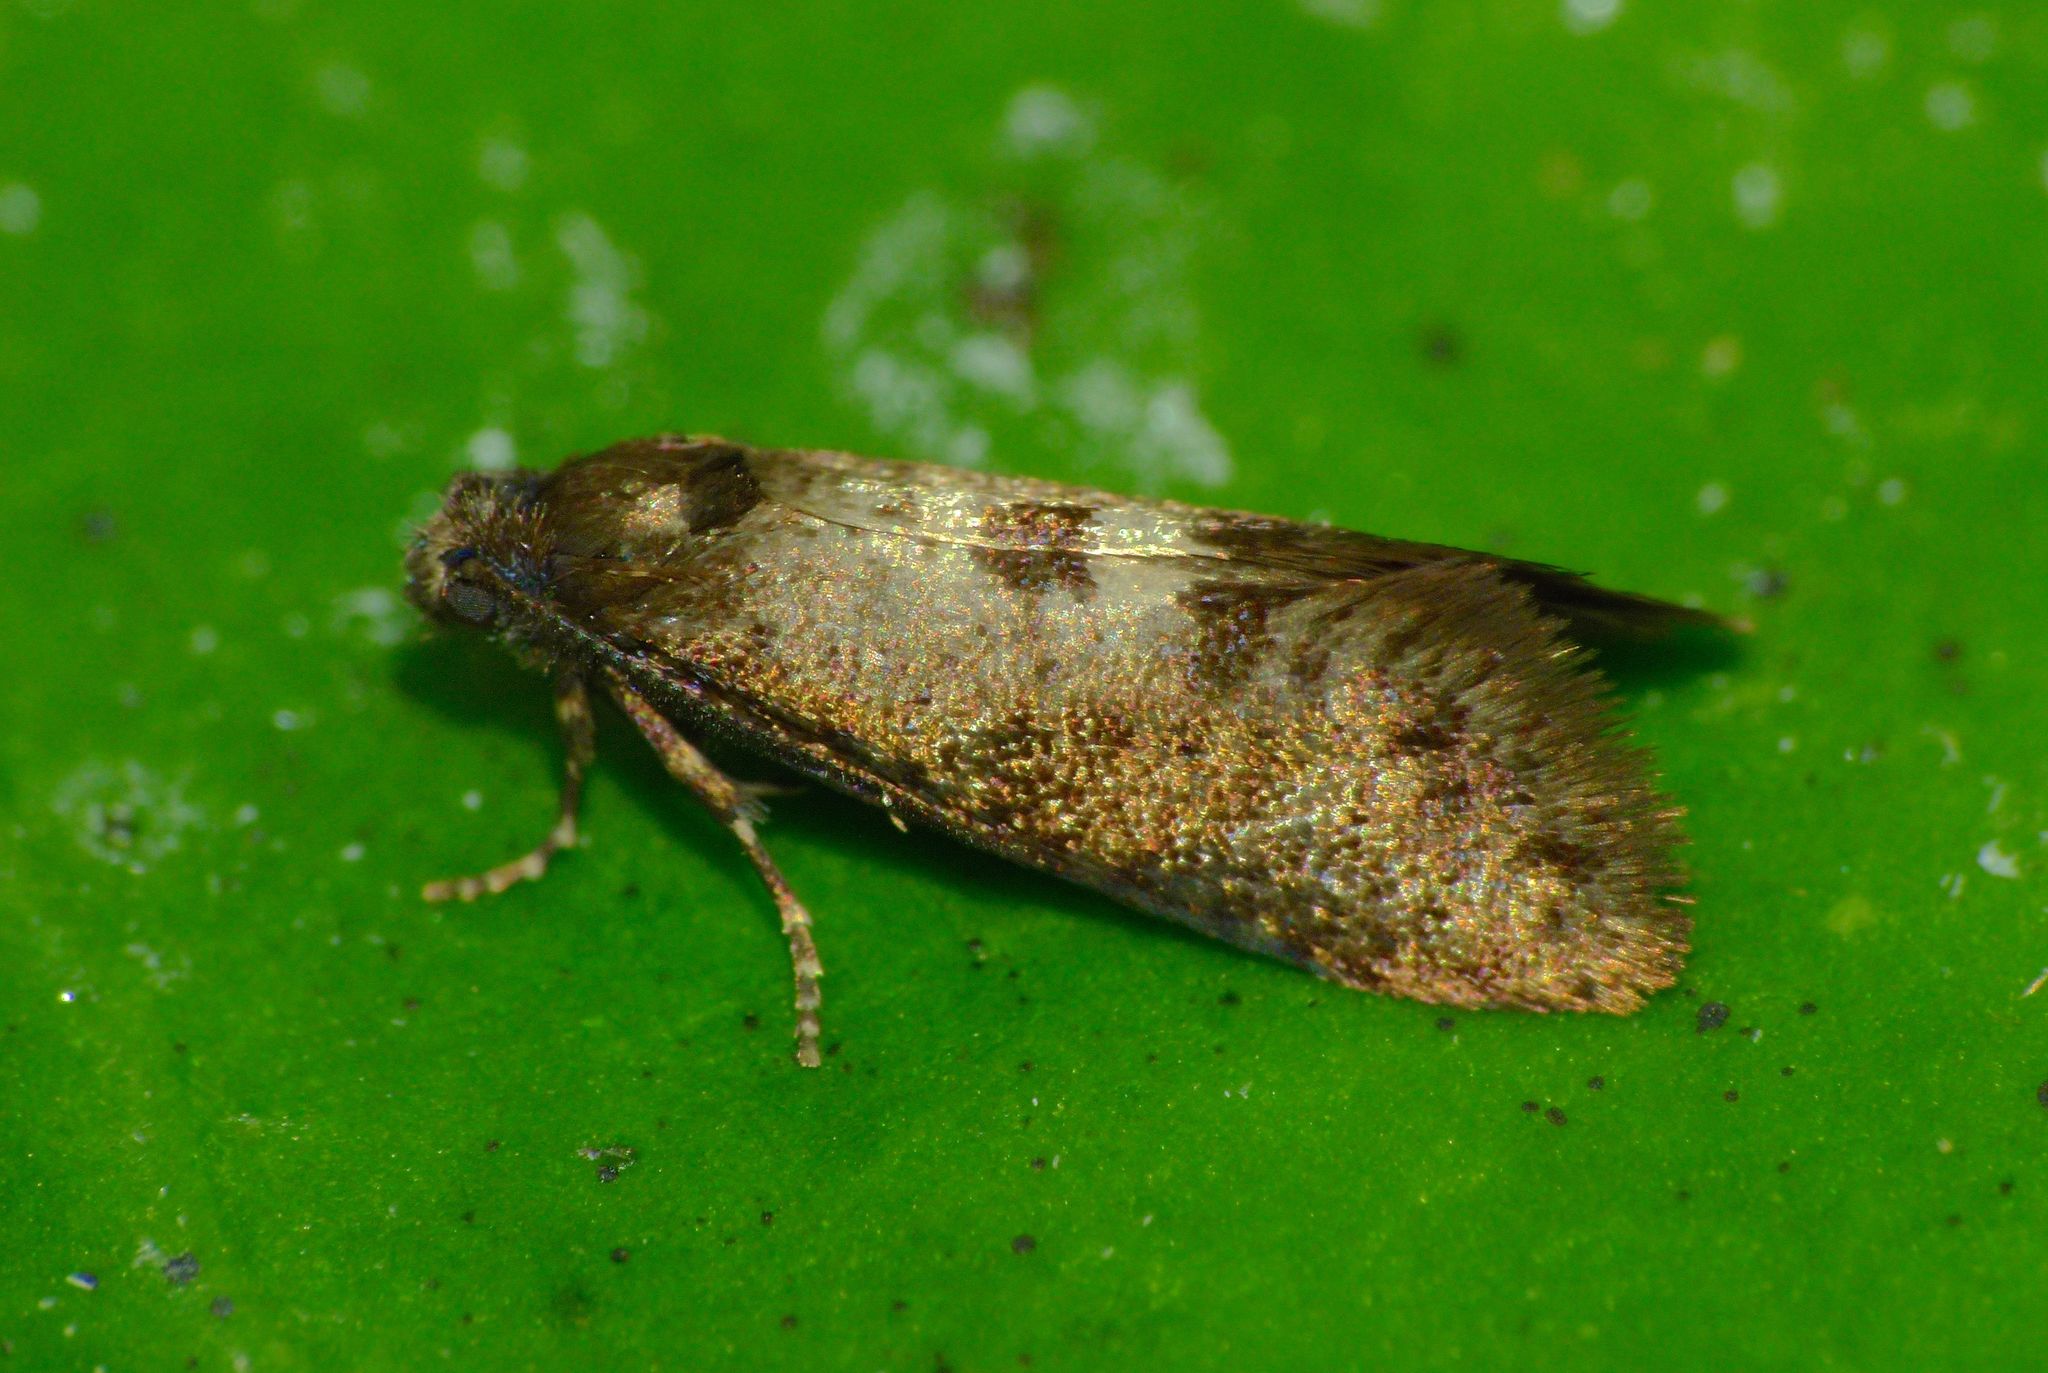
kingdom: Animalia
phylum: Arthropoda
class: Insecta
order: Lepidoptera
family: Psychidae
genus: Mallobathra
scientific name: Mallobathra perisseuta
